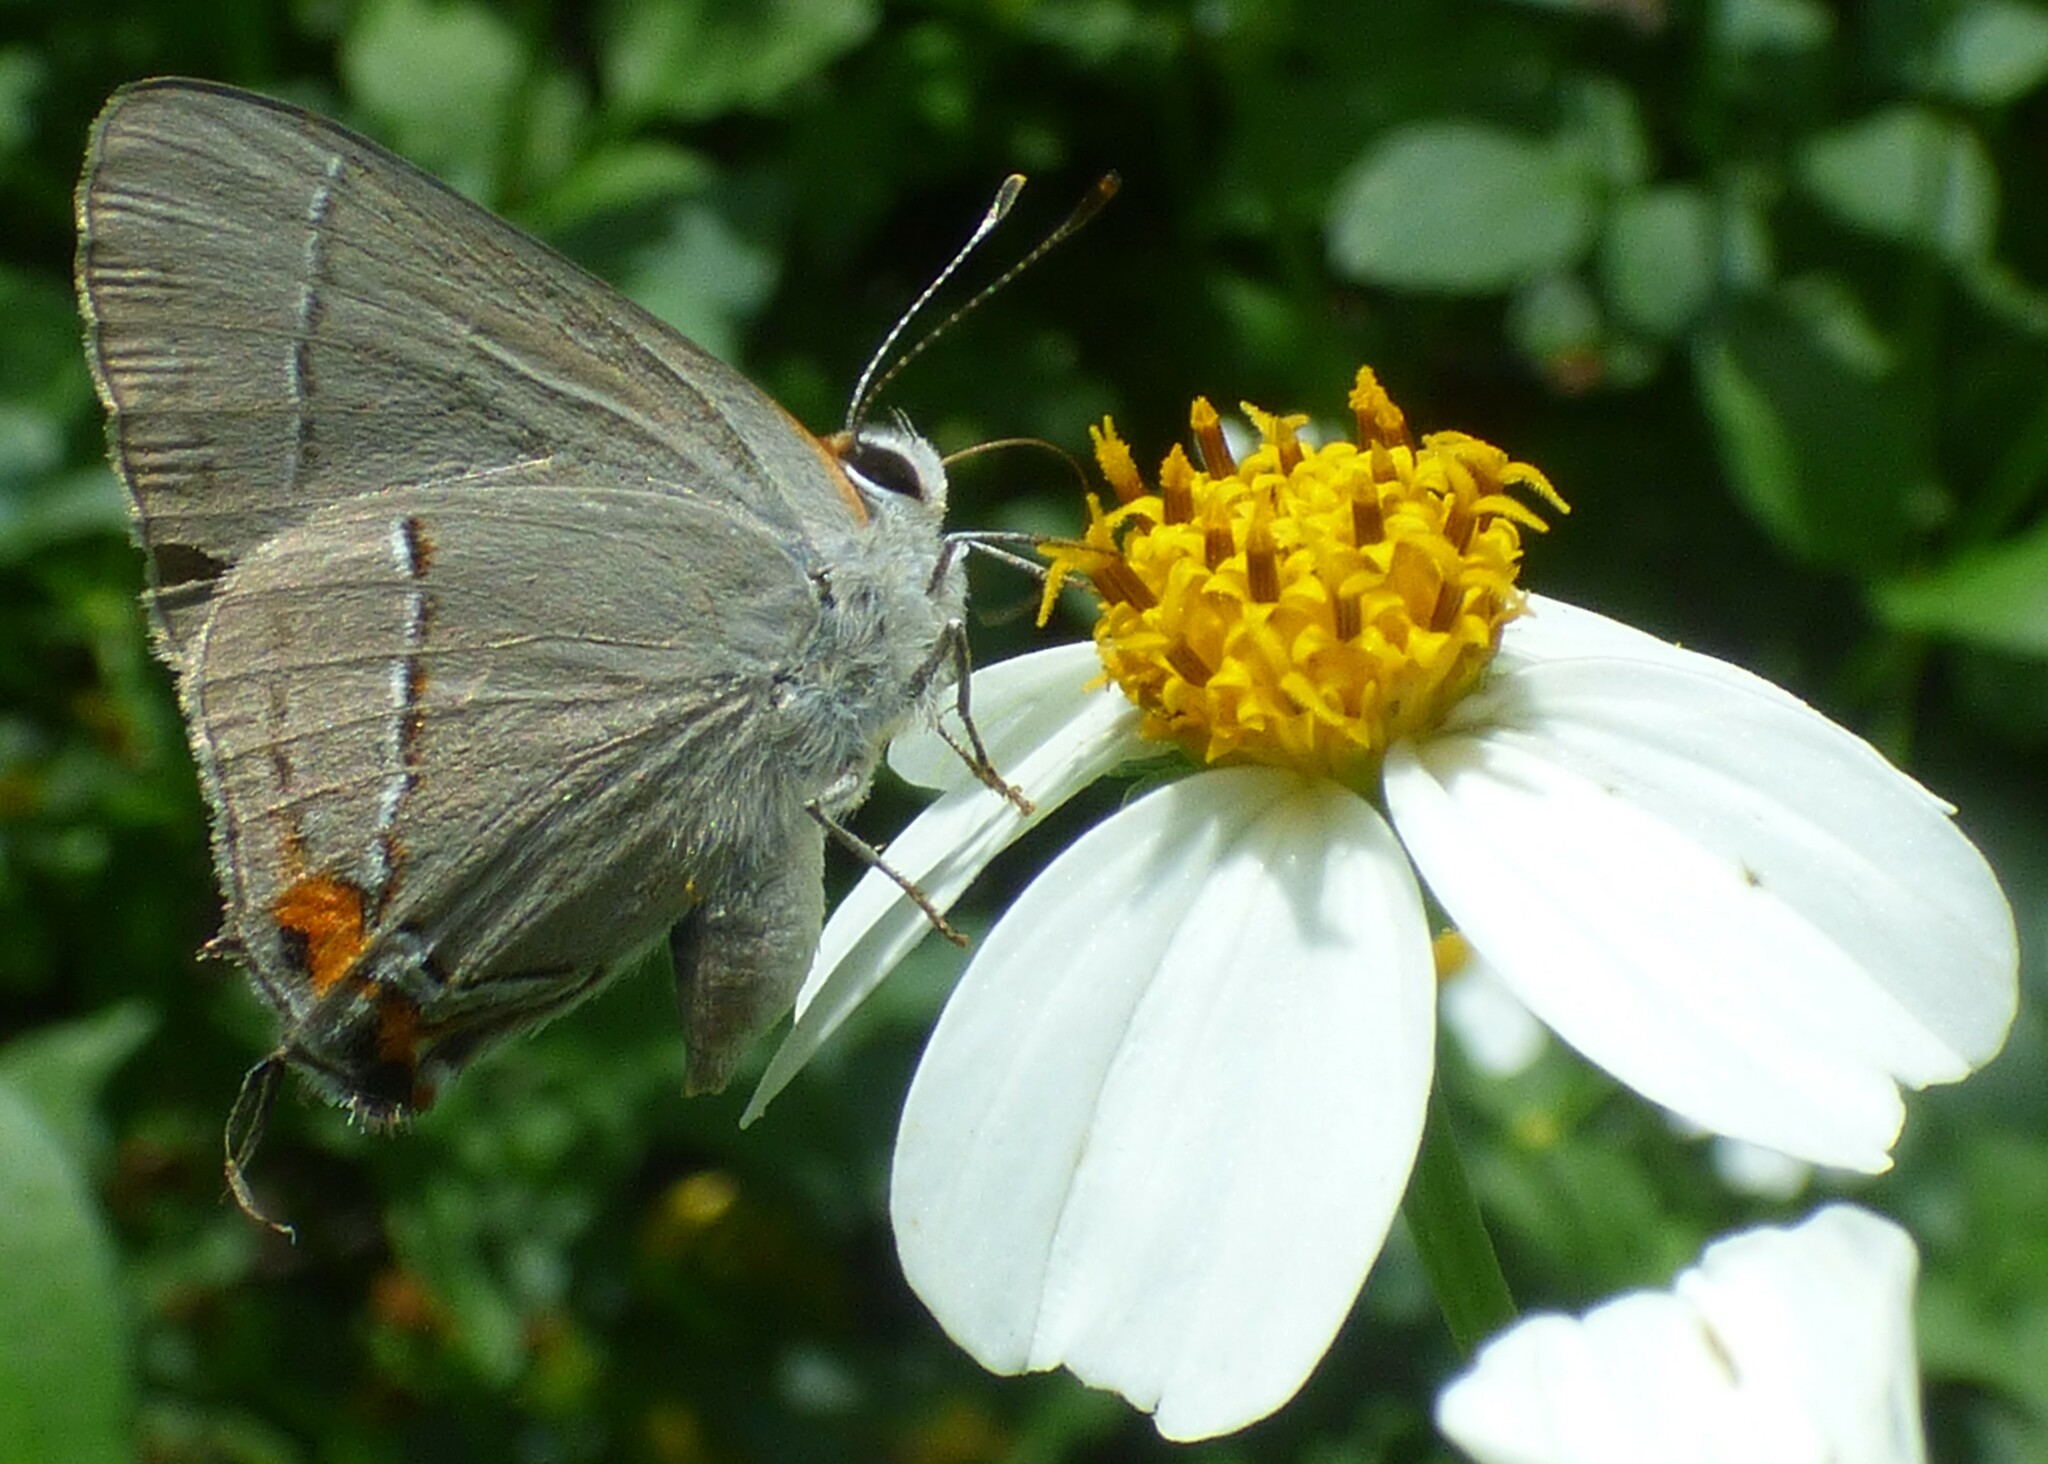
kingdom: Animalia
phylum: Arthropoda
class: Insecta
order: Lepidoptera
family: Lycaenidae
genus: Strymon
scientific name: Strymon melinus
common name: Gray hairstreak
